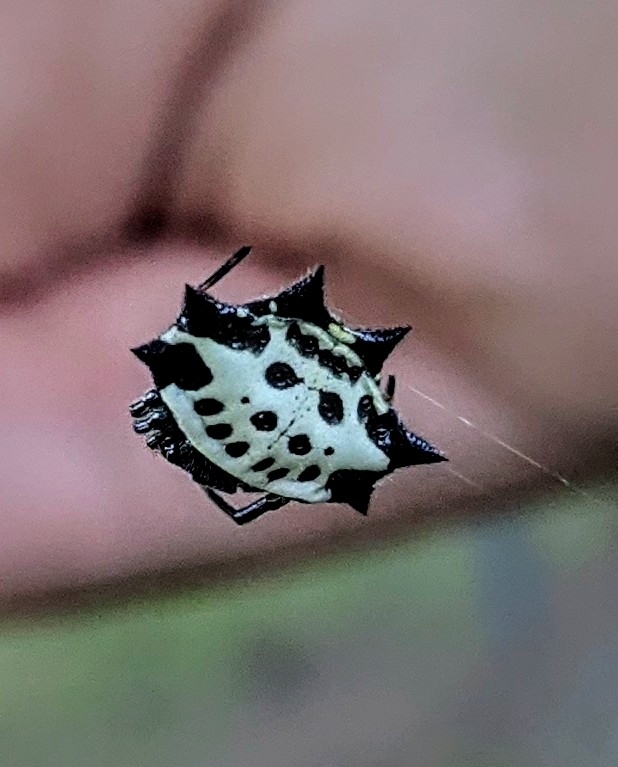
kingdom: Animalia
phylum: Arthropoda
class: Arachnida
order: Araneae
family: Araneidae
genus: Gasteracantha
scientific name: Gasteracantha cancriformis
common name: Orb weavers
